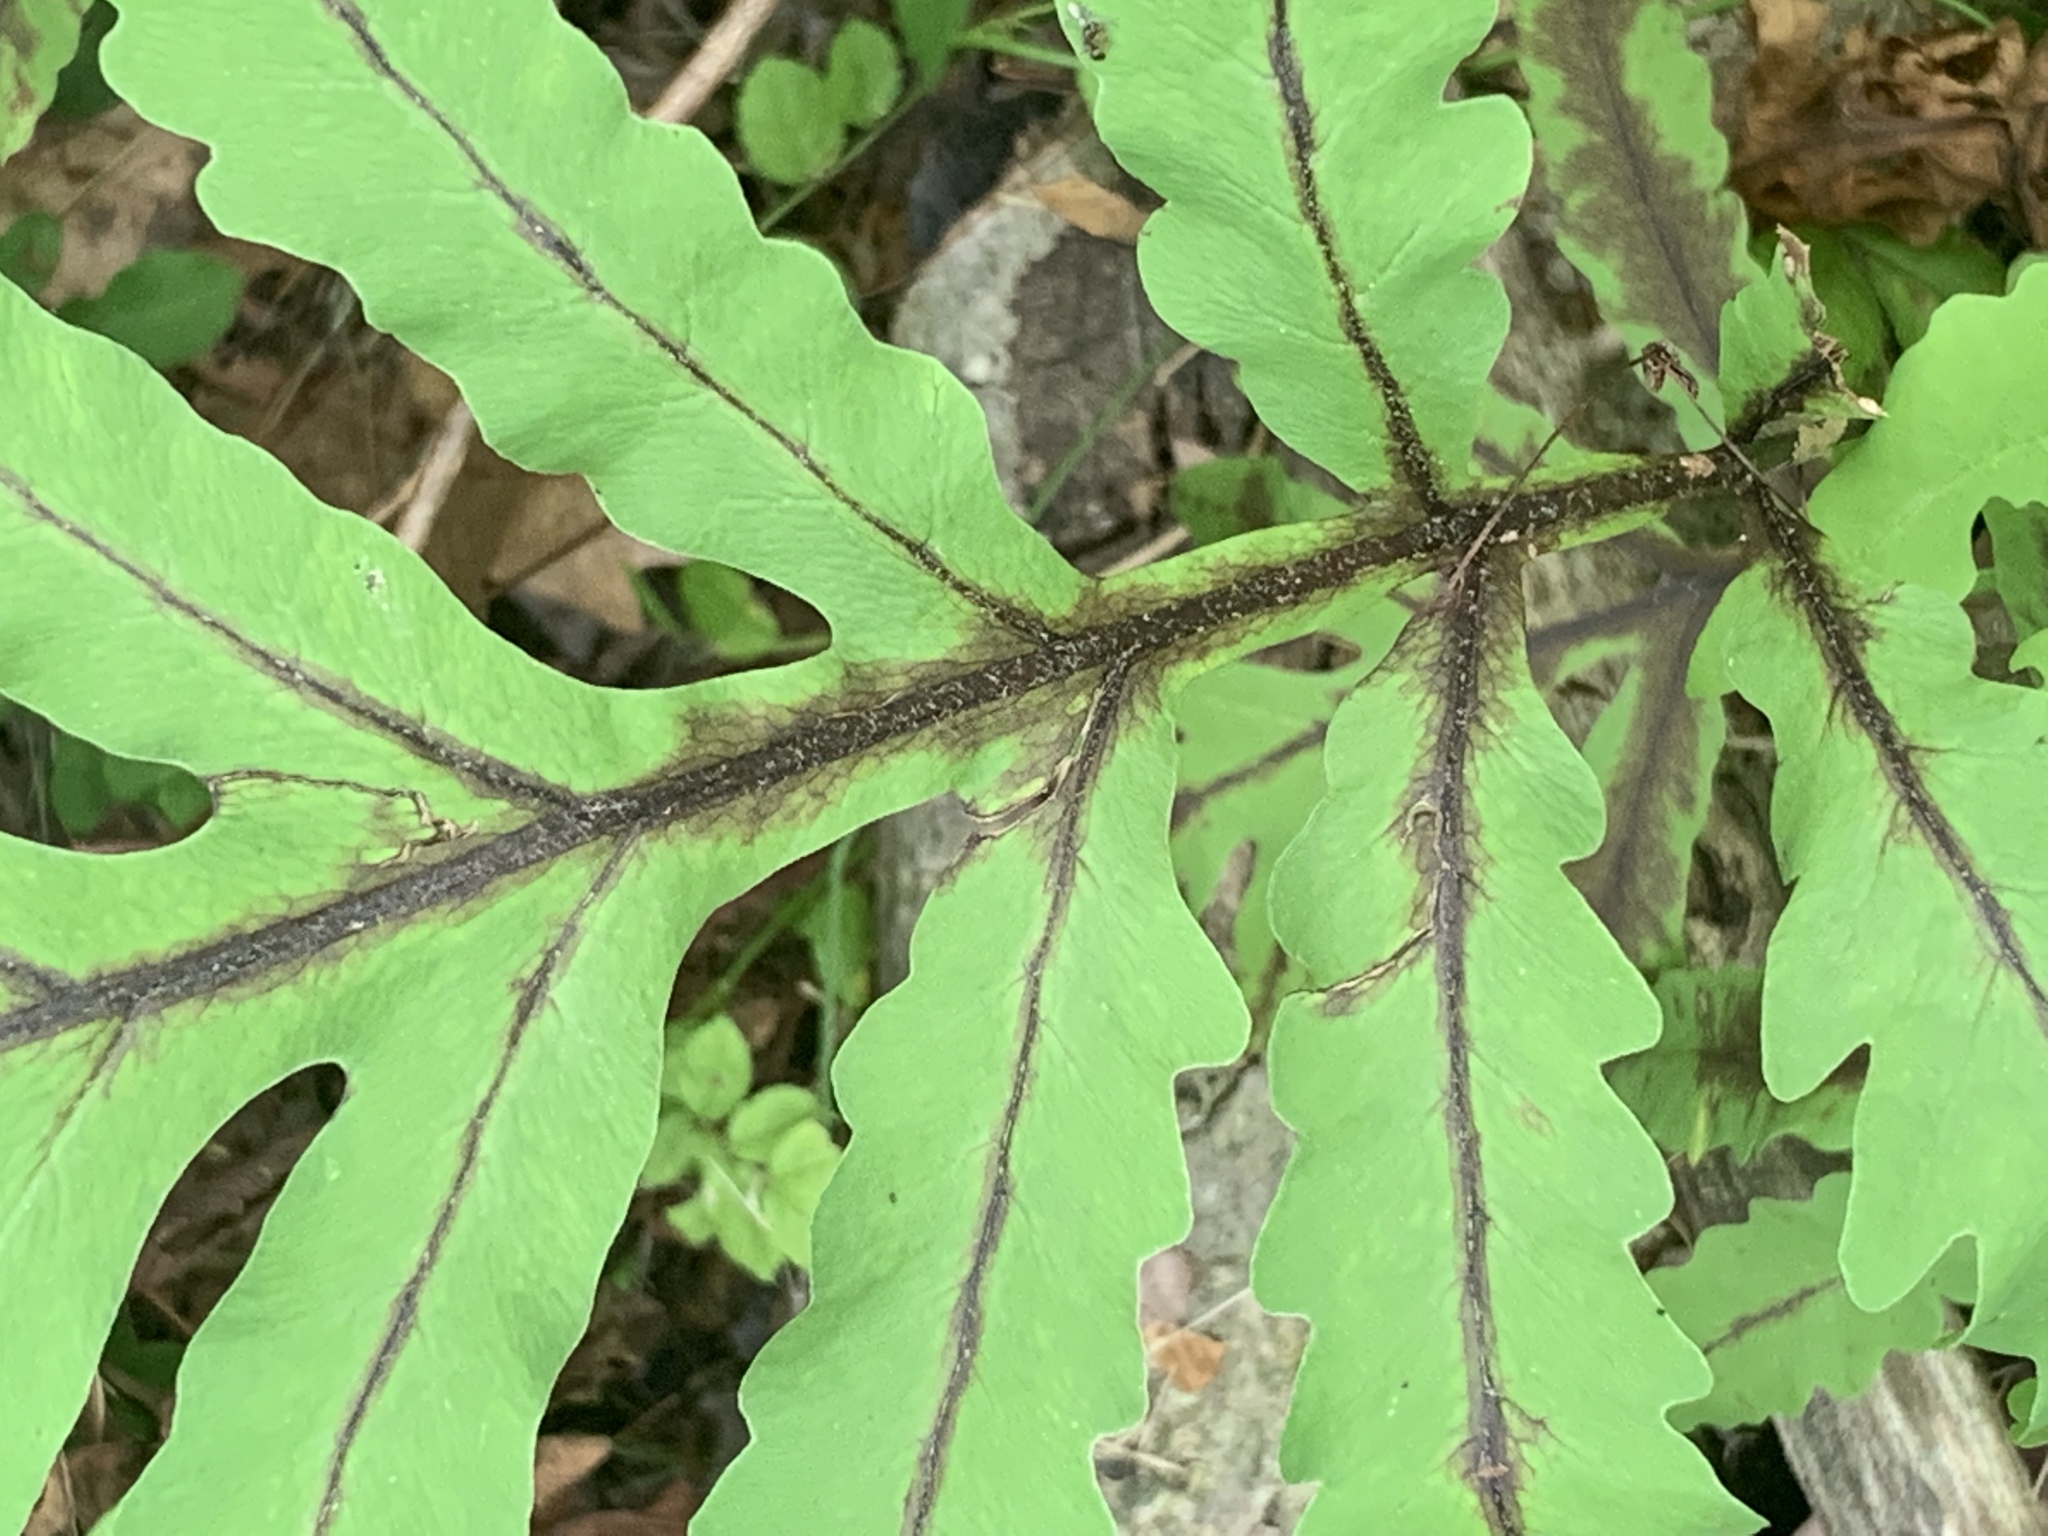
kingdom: Plantae
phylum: Tracheophyta
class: Polypodiopsida
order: Polypodiales
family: Onocleaceae
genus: Onoclea
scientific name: Onoclea sensibilis
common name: Sensitive fern
